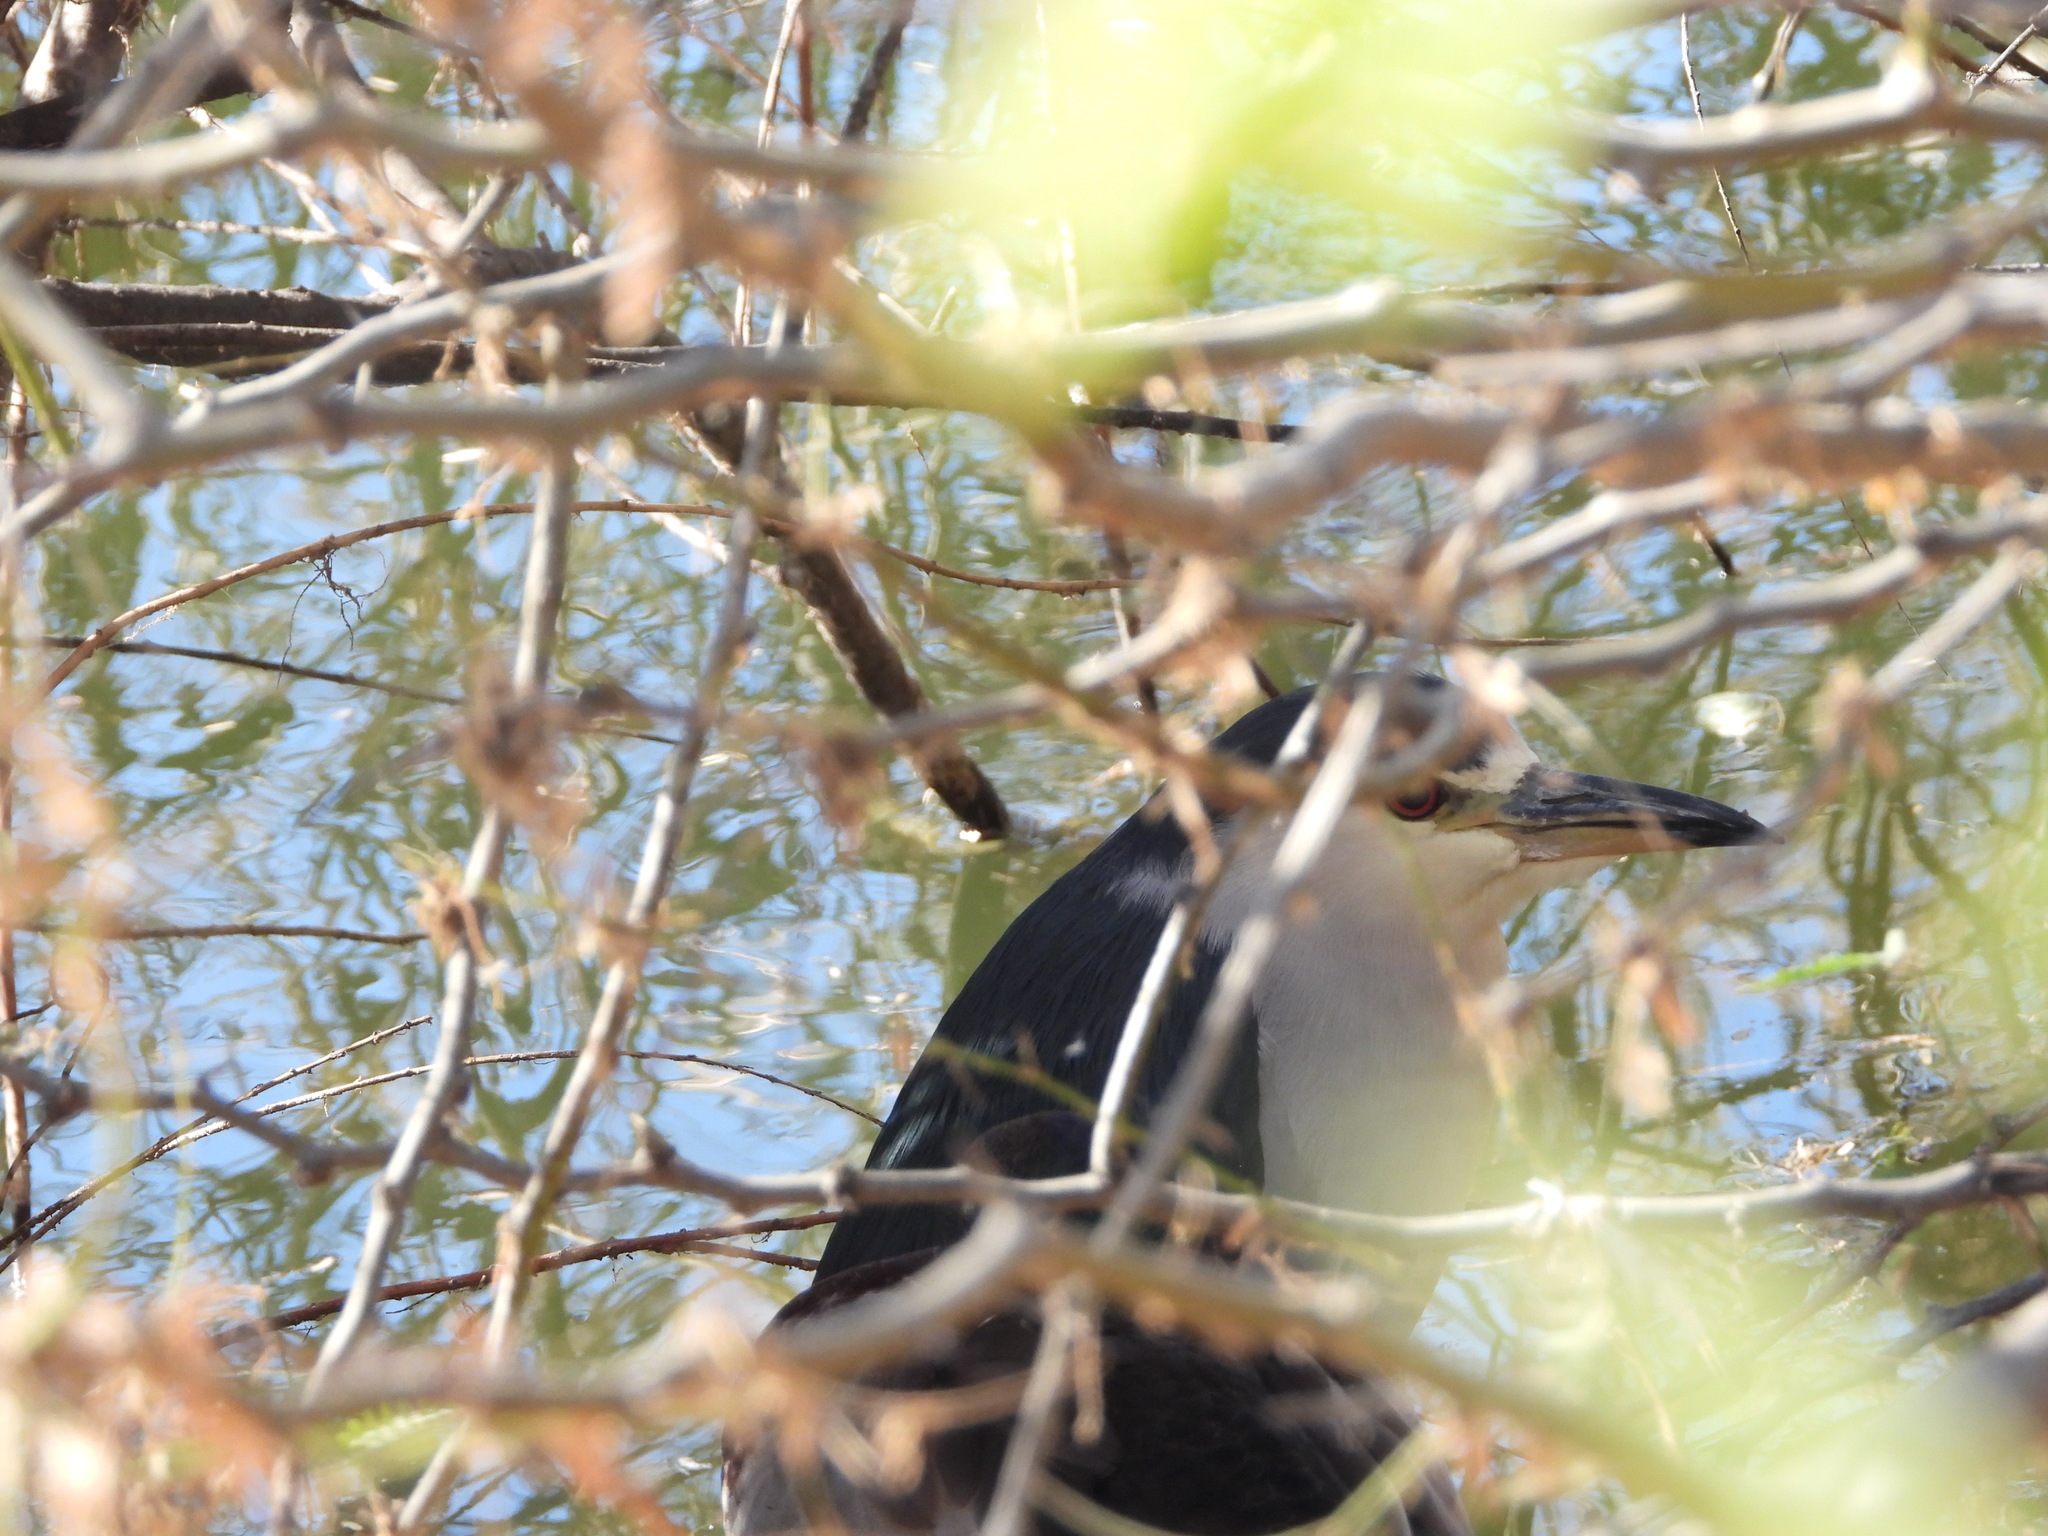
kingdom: Animalia
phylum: Chordata
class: Aves
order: Pelecaniformes
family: Ardeidae
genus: Nycticorax
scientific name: Nycticorax nycticorax
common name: Black-crowned night heron
